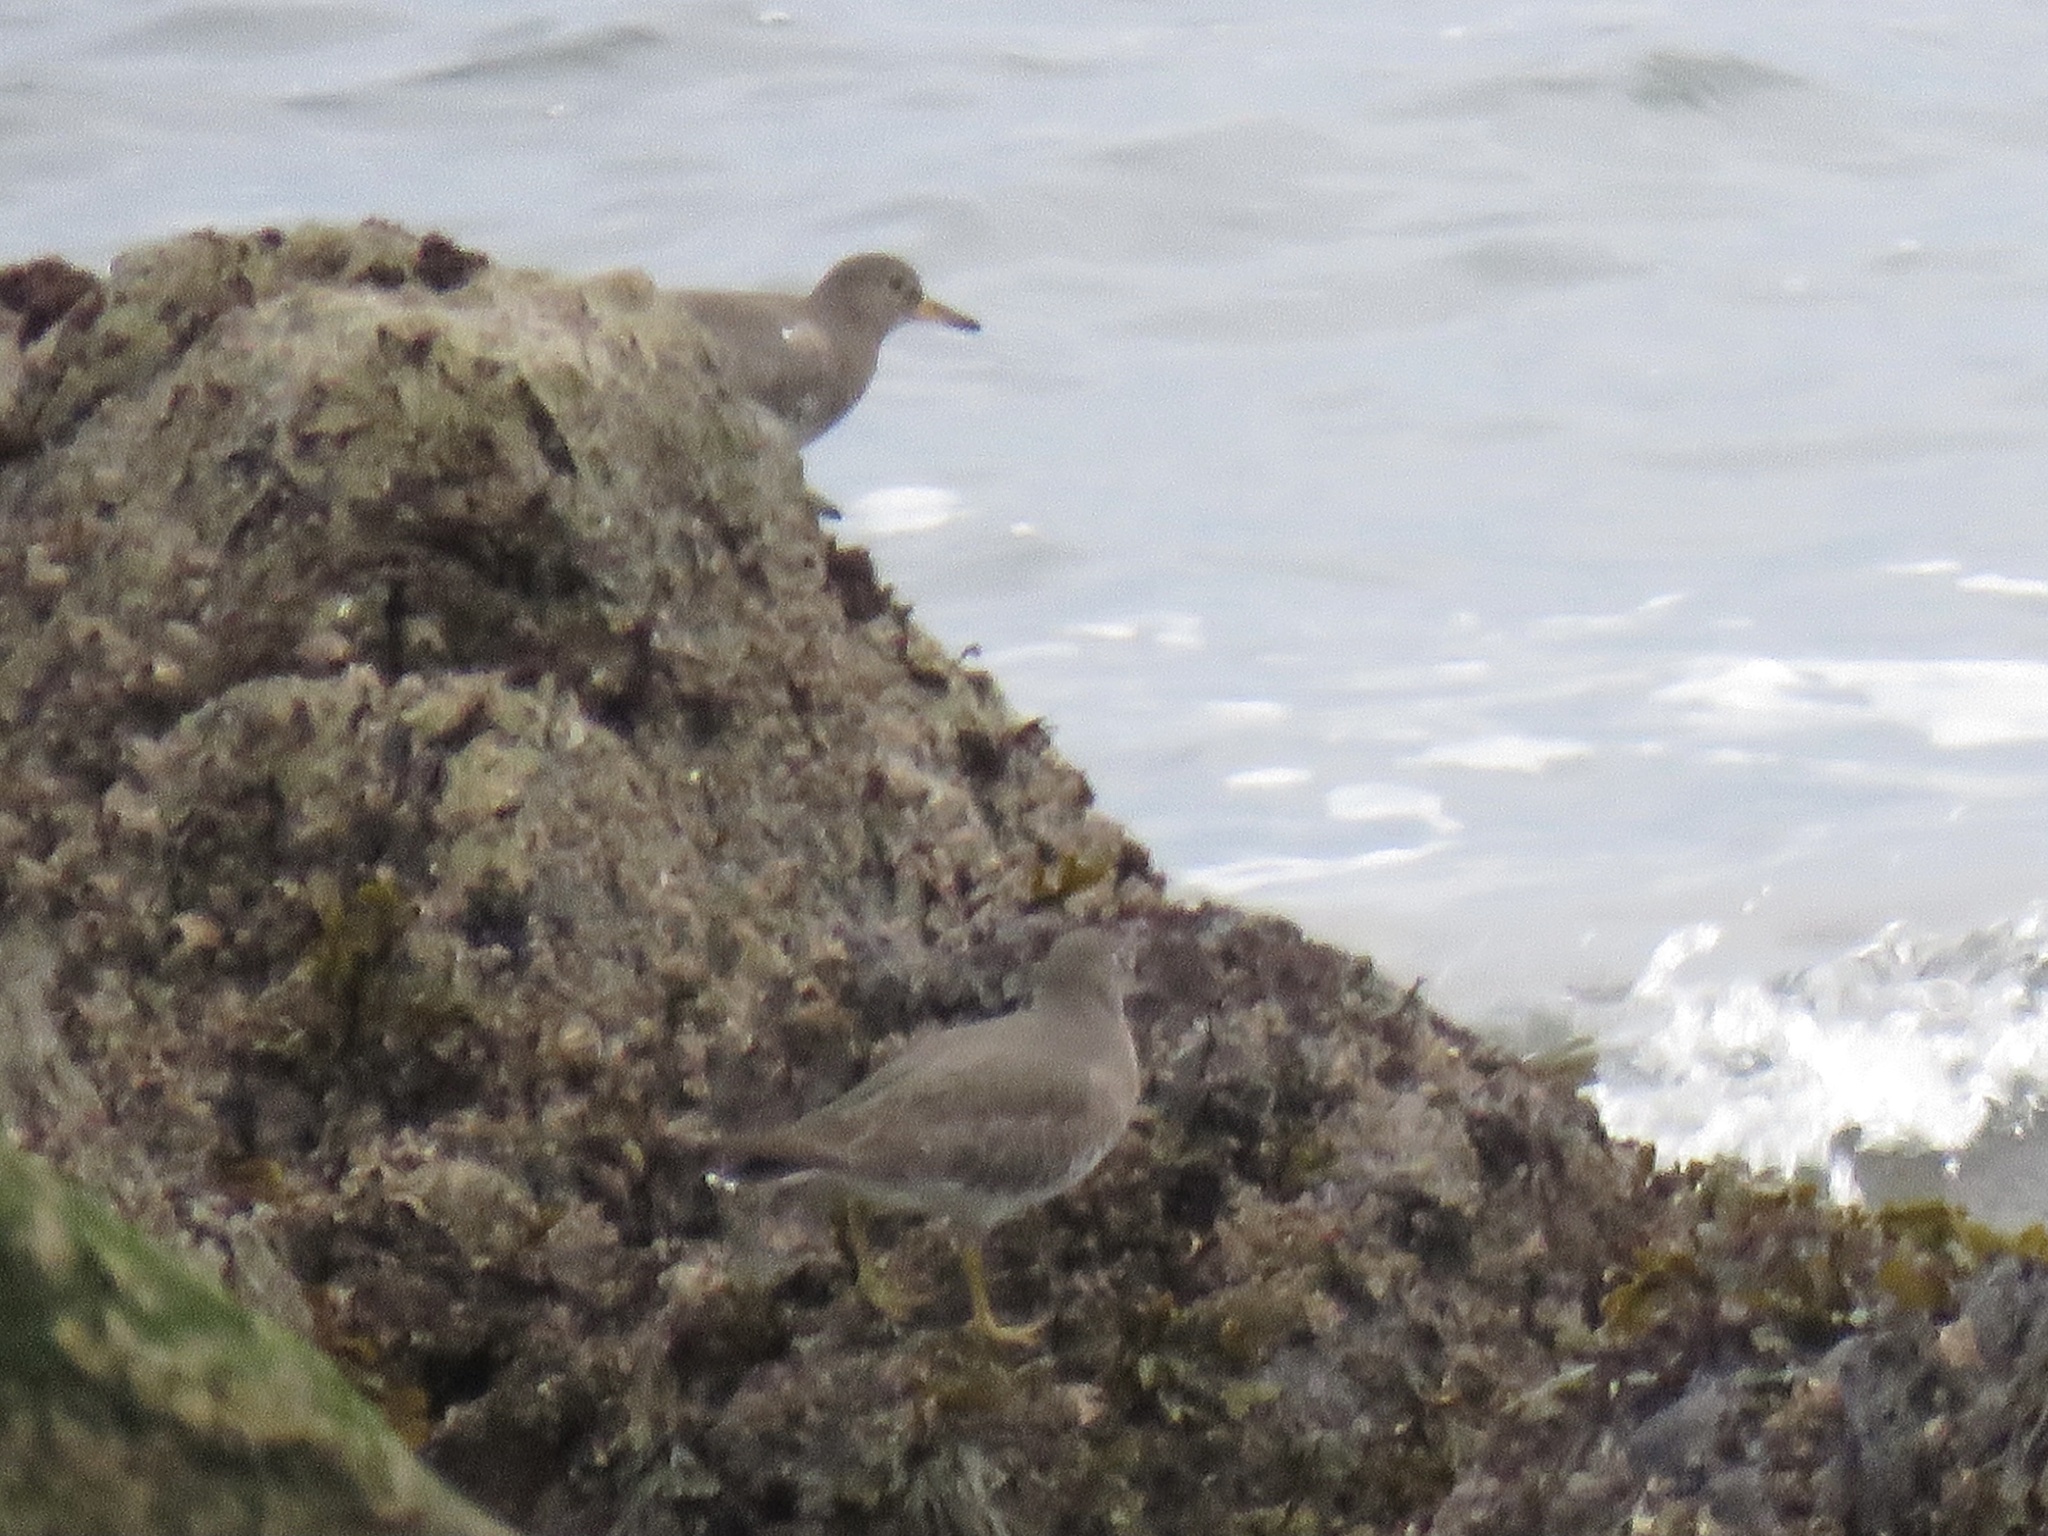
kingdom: Animalia
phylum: Chordata
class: Aves
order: Charadriiformes
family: Scolopacidae
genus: Calidris
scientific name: Calidris virgata
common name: Surfbird
